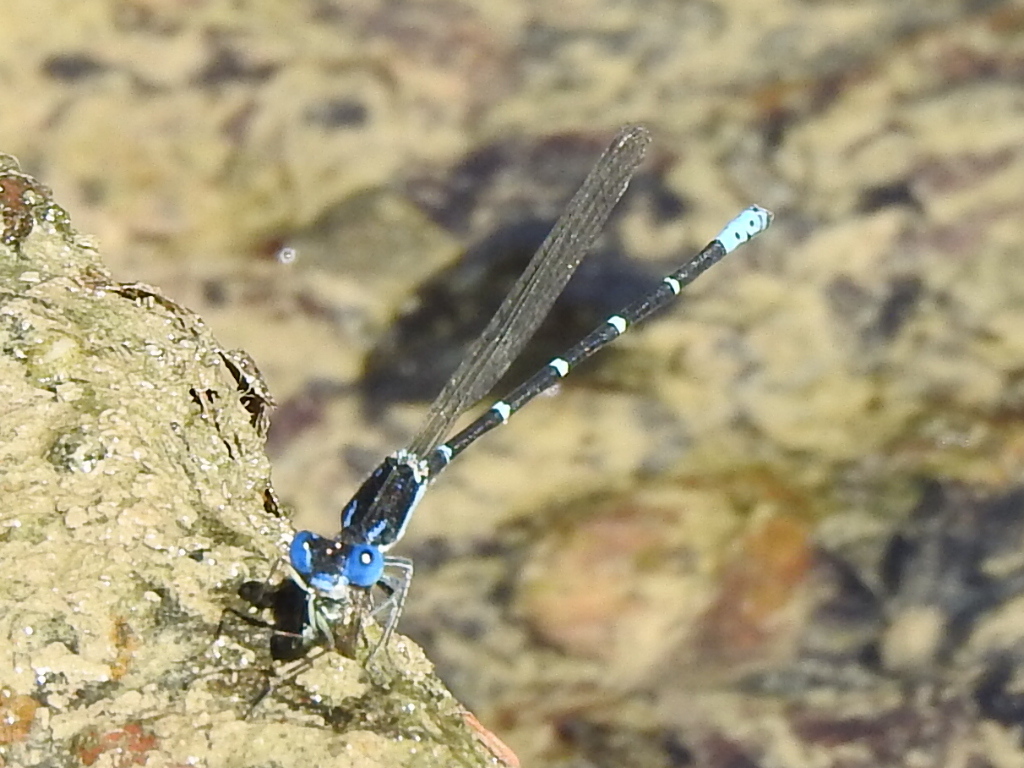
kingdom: Animalia
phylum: Arthropoda
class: Insecta
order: Odonata
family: Coenagrionidae
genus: Argia
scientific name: Argia sedula
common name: Blue-ringed dancer
